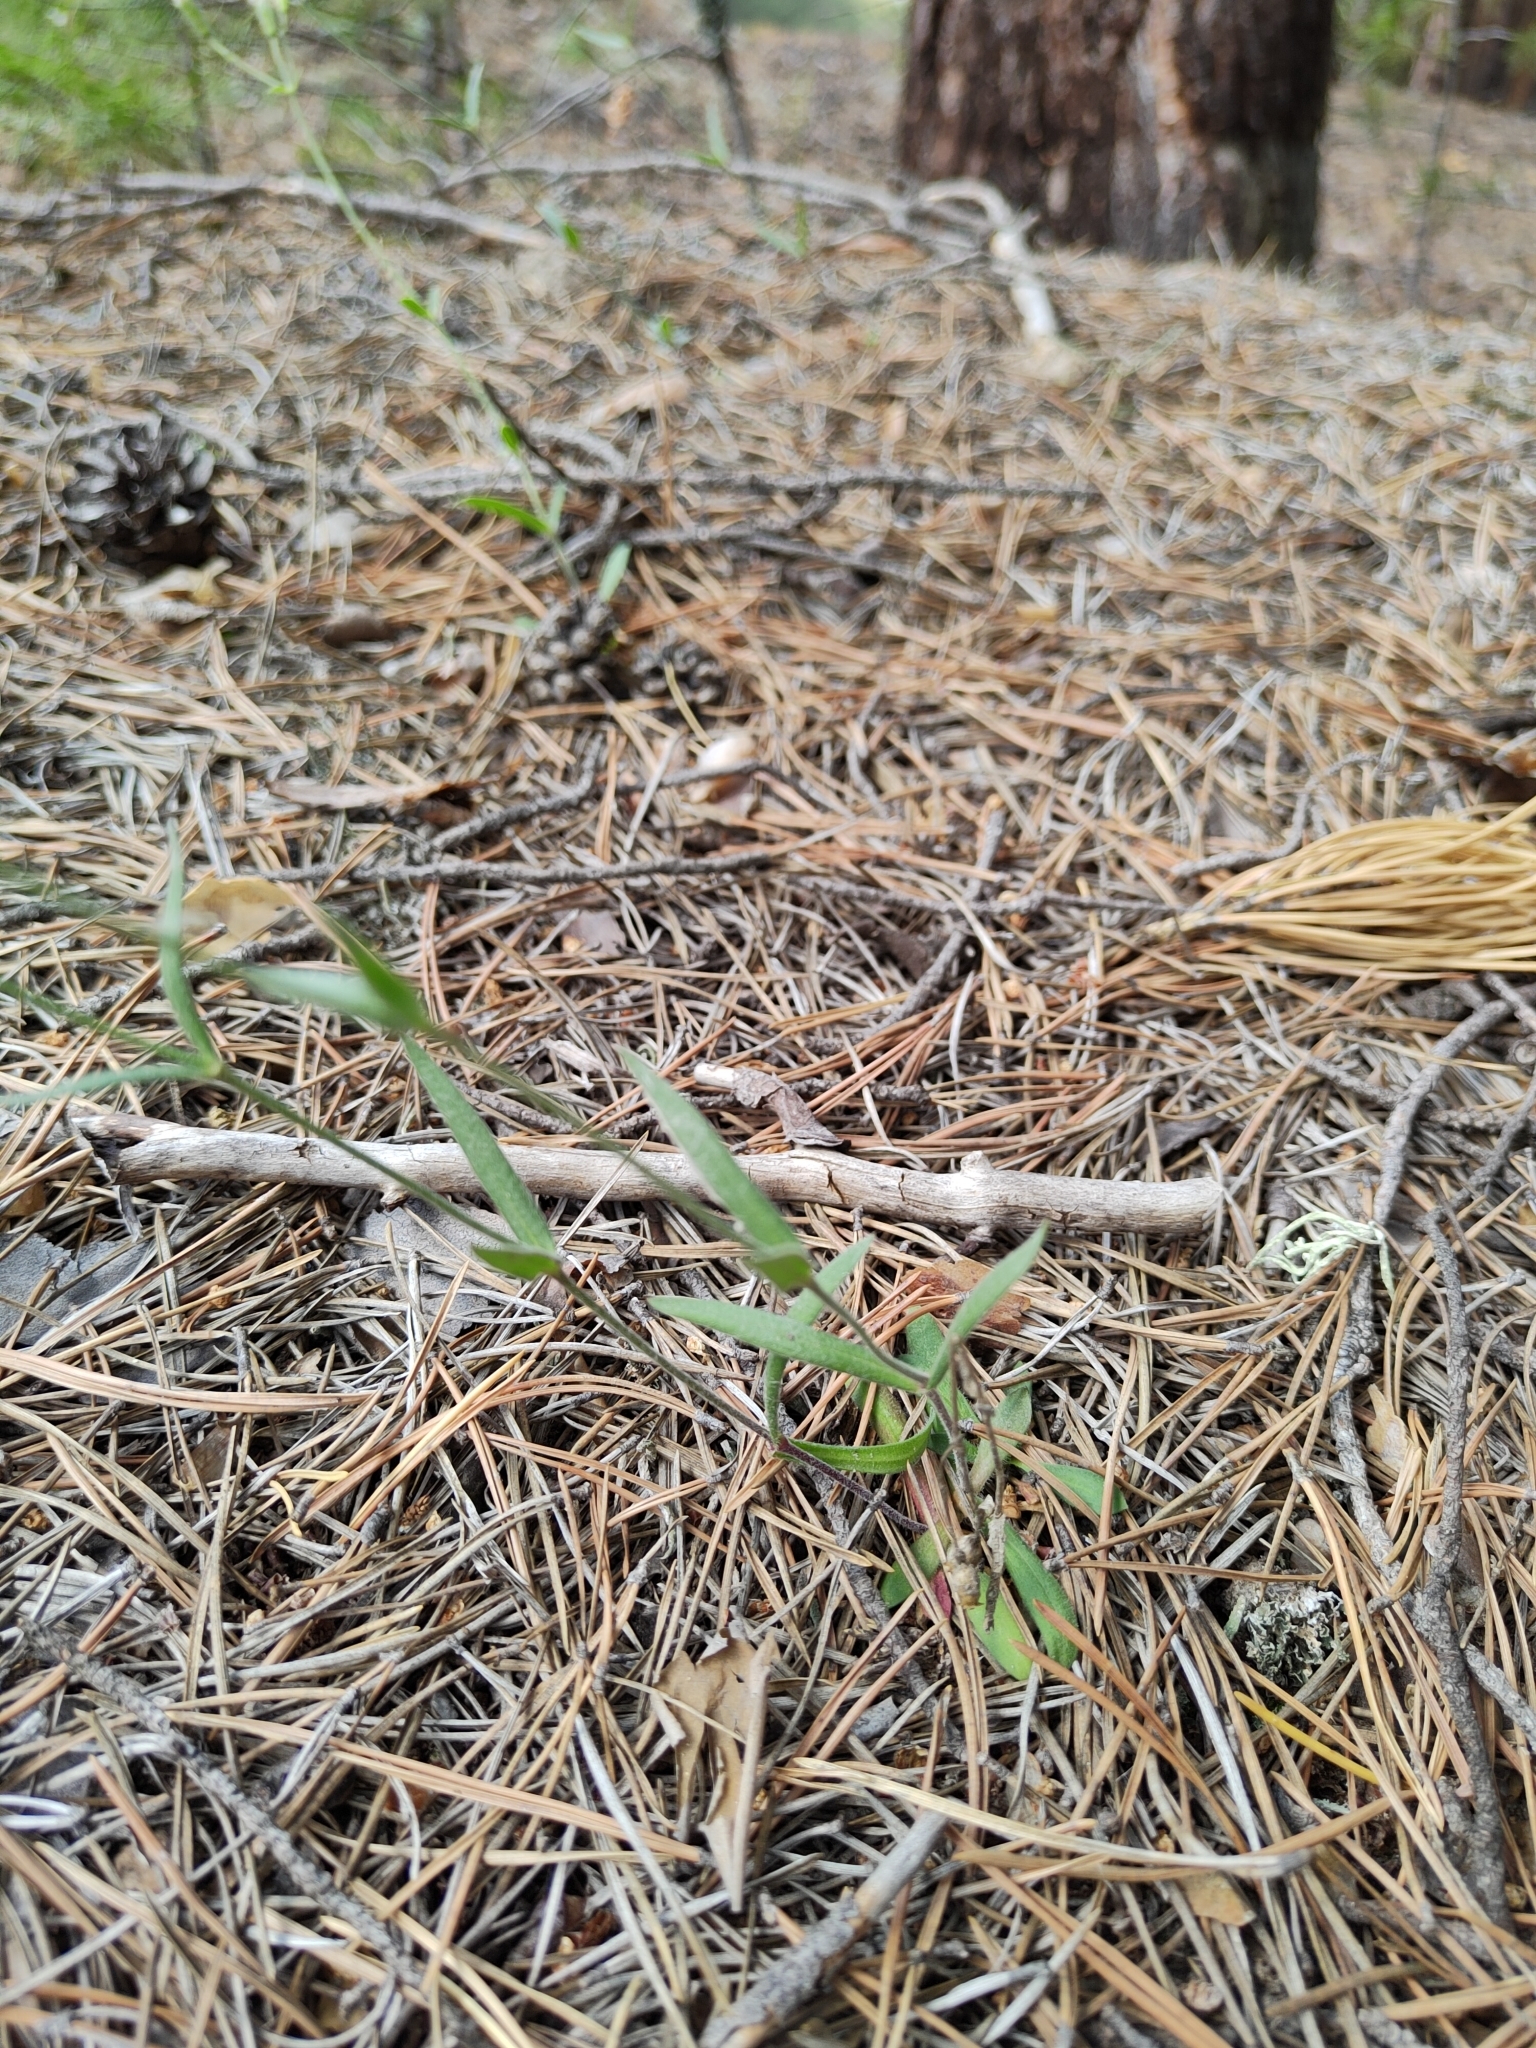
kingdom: Plantae
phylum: Tracheophyta
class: Magnoliopsida
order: Caryophyllales
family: Caryophyllaceae
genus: Silene
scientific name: Silene orientalimongolica
